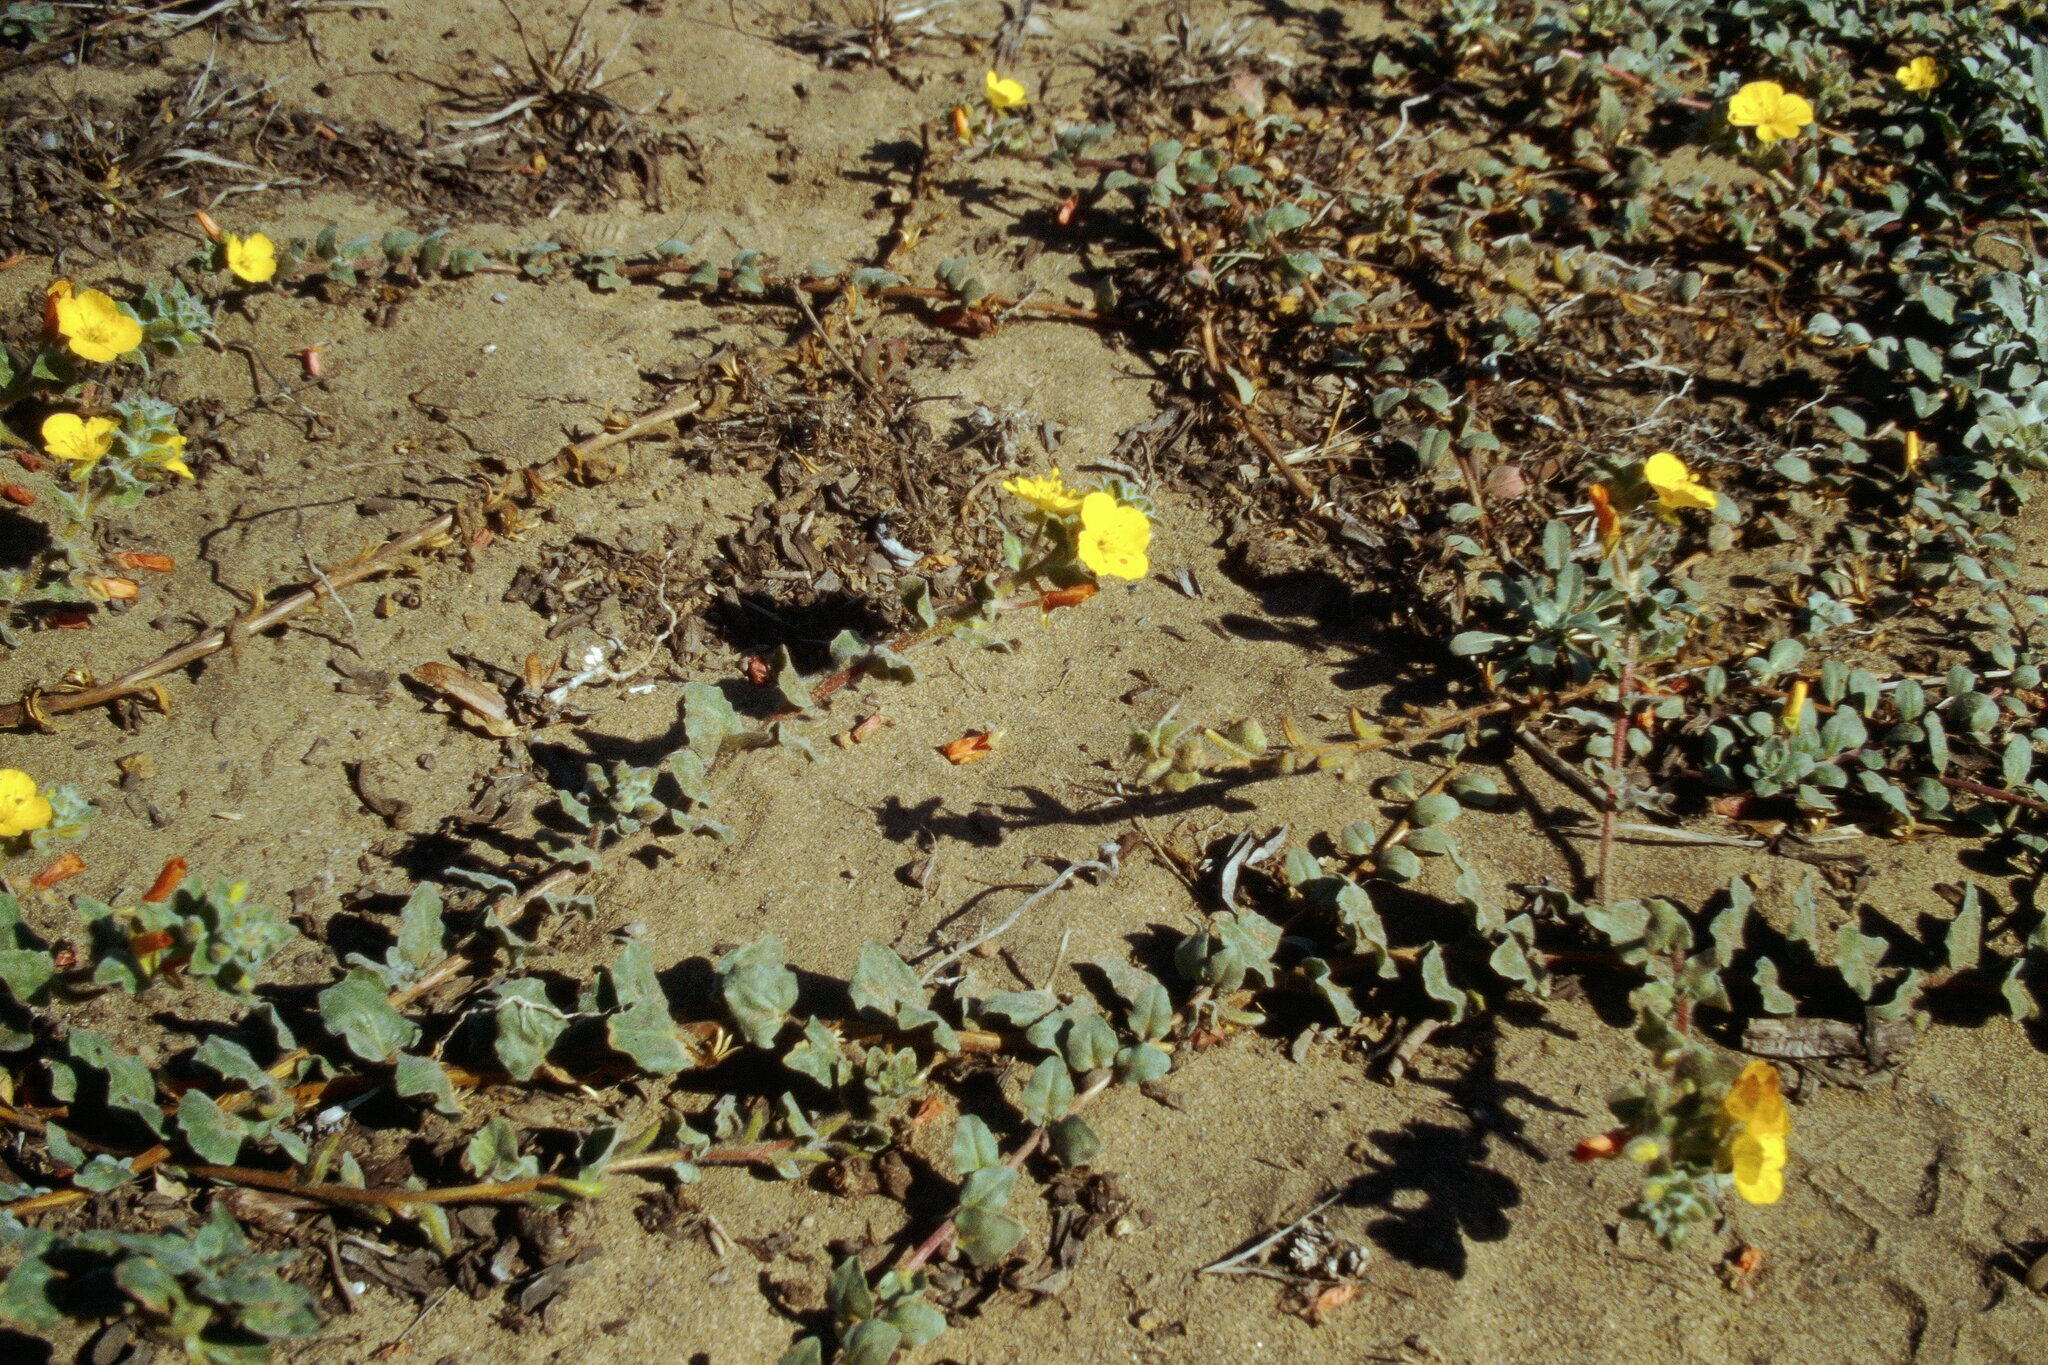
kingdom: Plantae
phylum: Tracheophyta
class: Magnoliopsida
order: Myrtales
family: Onagraceae
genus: Camissoniopsis
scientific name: Camissoniopsis cheiranthifolia
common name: Beach suncup
